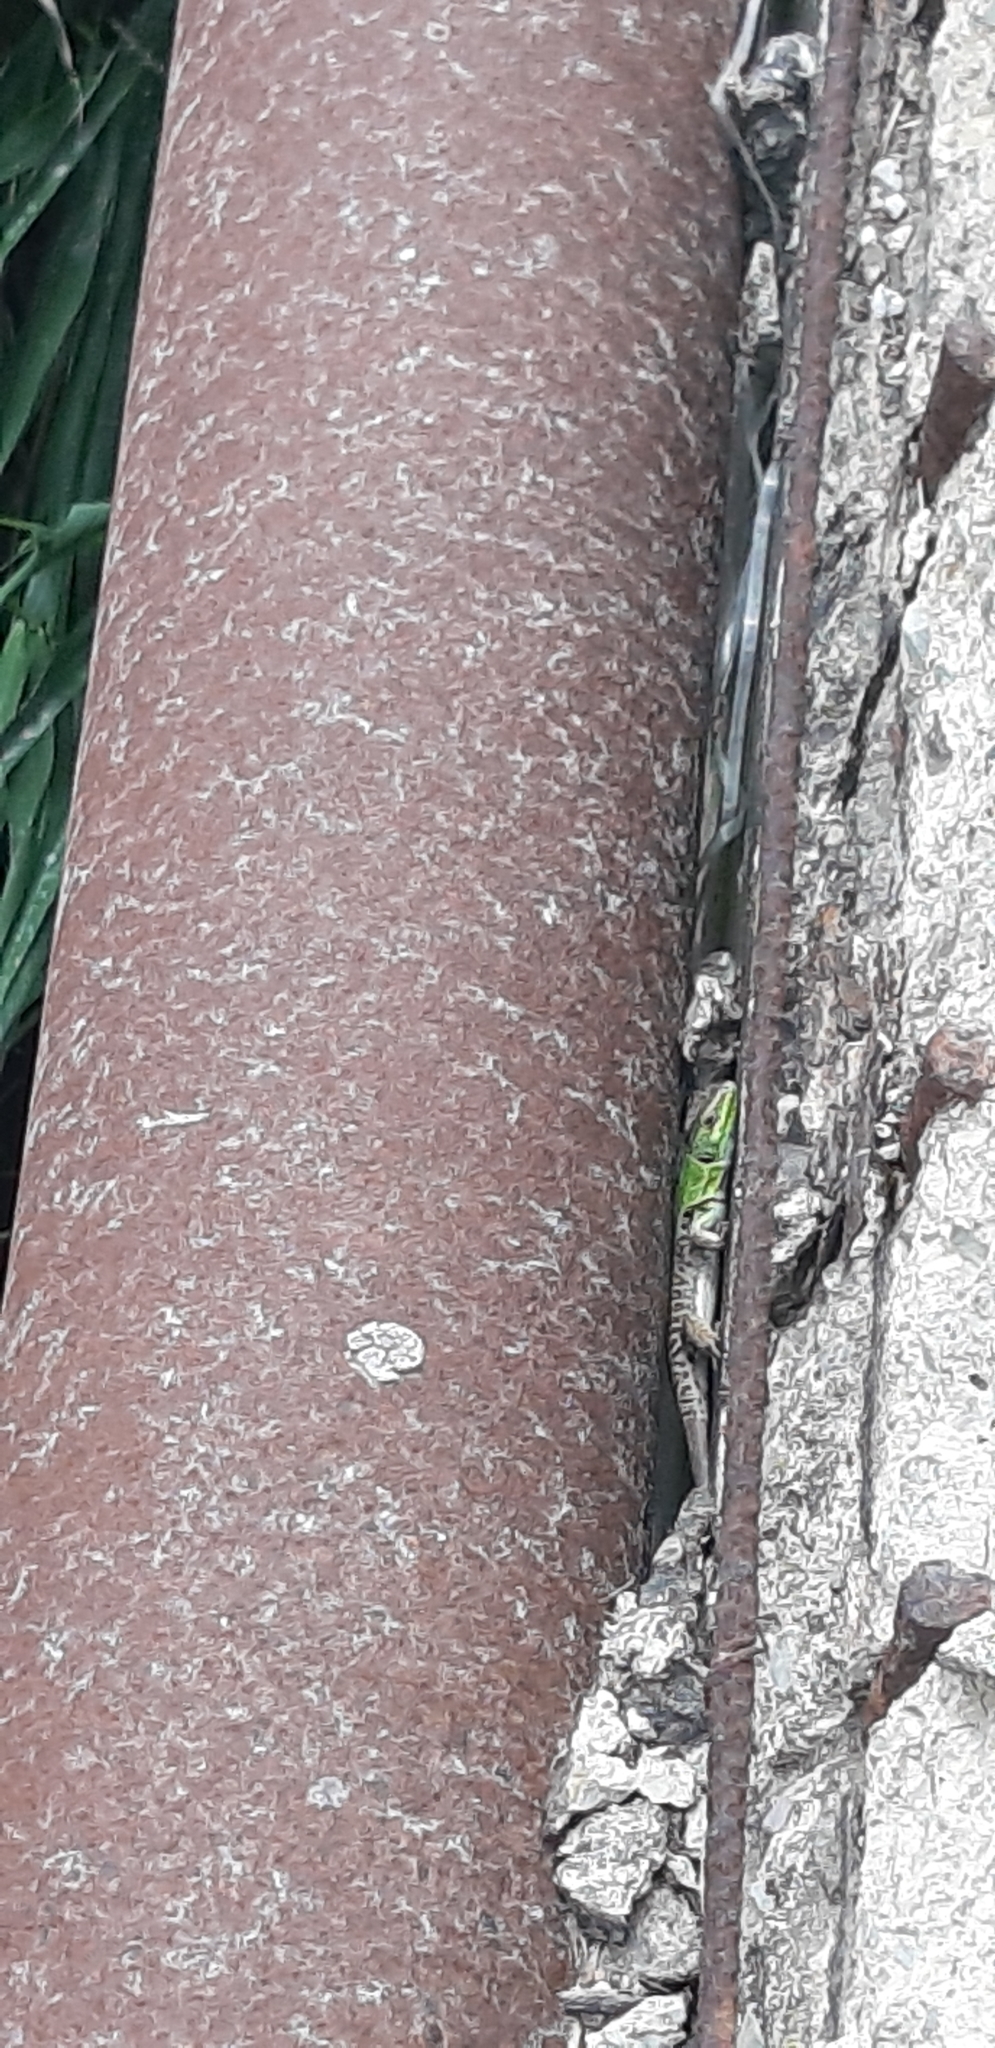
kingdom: Animalia
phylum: Chordata
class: Squamata
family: Lacertidae
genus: Podarcis
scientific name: Podarcis siculus
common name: Italian wall lizard
